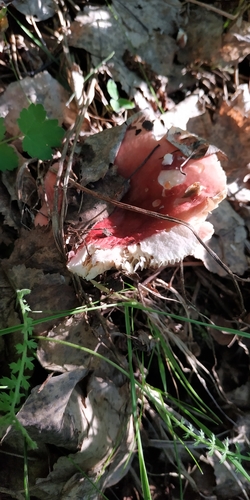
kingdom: Fungi
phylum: Basidiomycota
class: Agaricomycetes
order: Russulales
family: Russulaceae
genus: Russula
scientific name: Russula
